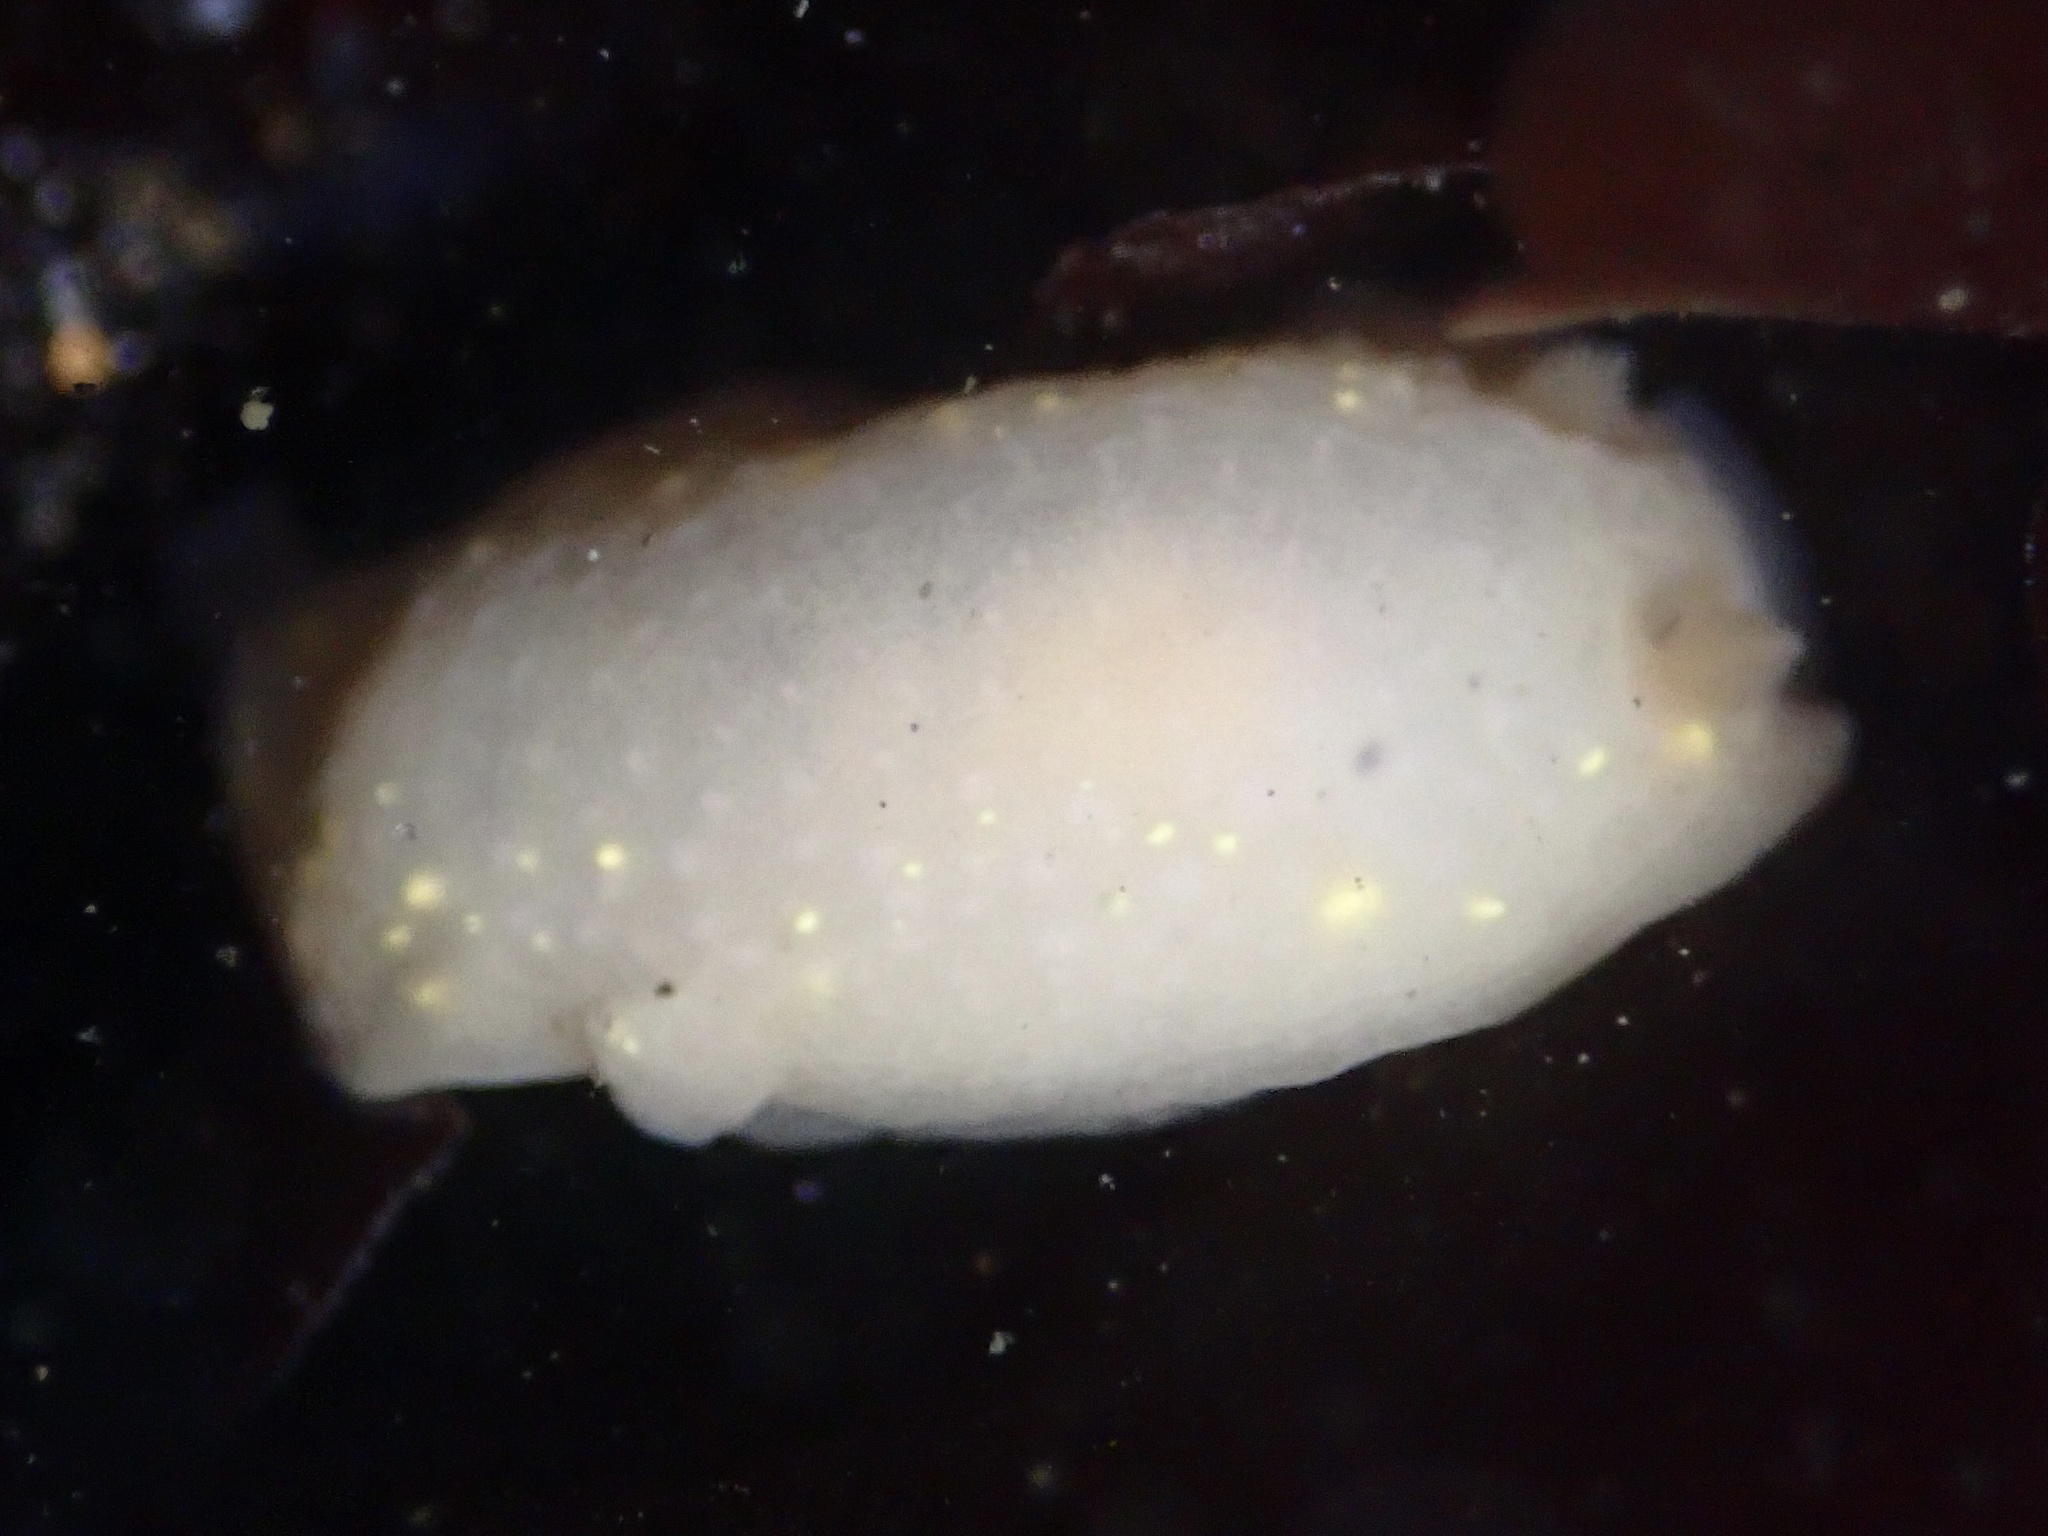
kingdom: Animalia
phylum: Mollusca
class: Gastropoda
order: Nudibranchia
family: Cadlinidae
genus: Cadlina
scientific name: Cadlina modesta
